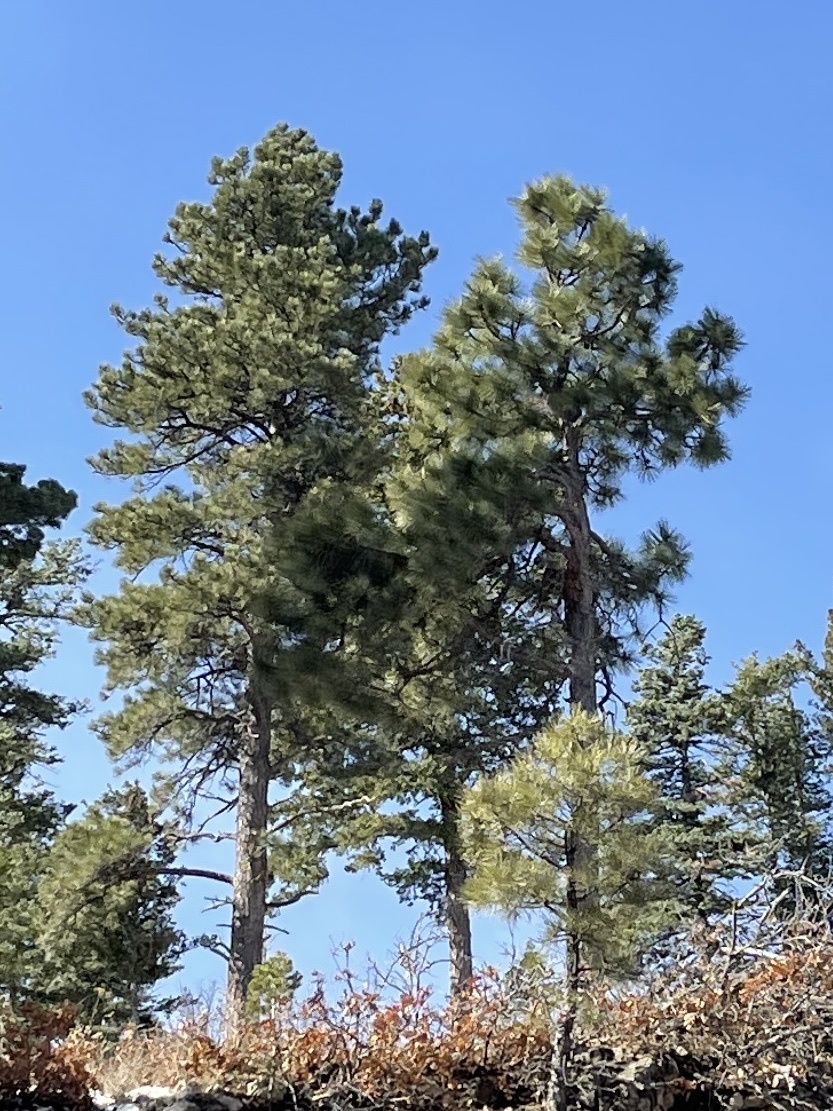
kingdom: Plantae
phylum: Tracheophyta
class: Pinopsida
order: Pinales
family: Pinaceae
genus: Pinus
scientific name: Pinus ponderosa
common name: Western yellow-pine
